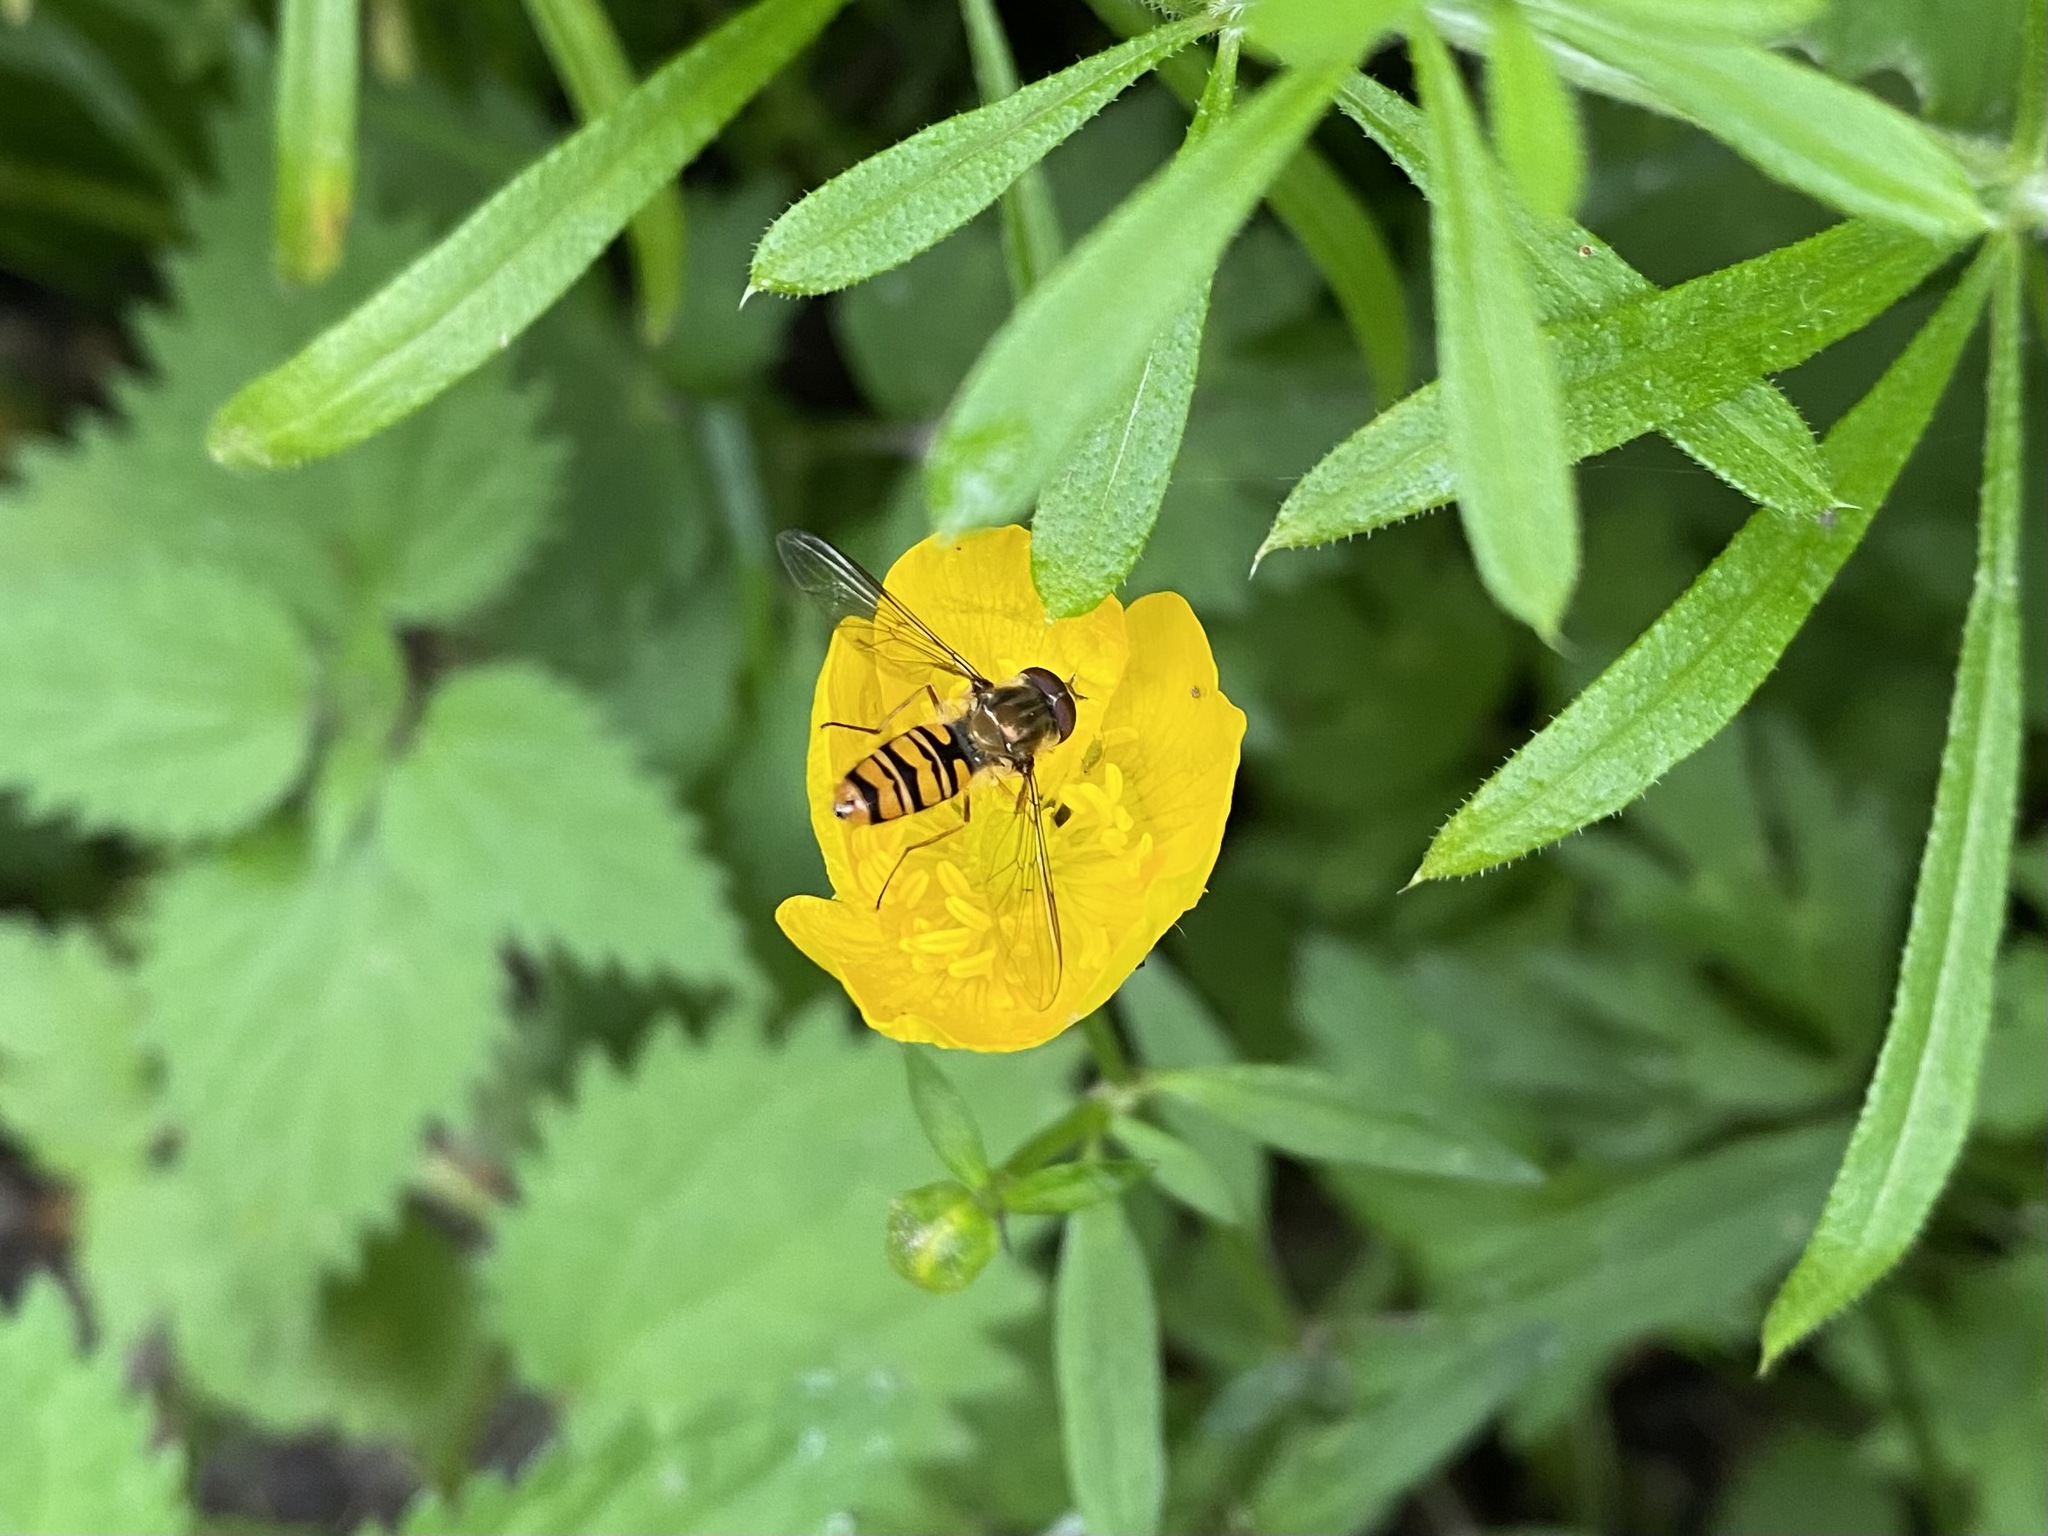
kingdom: Animalia
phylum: Arthropoda
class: Insecta
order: Diptera
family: Syrphidae
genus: Episyrphus
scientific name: Episyrphus balteatus
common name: Marmalade hoverfly
